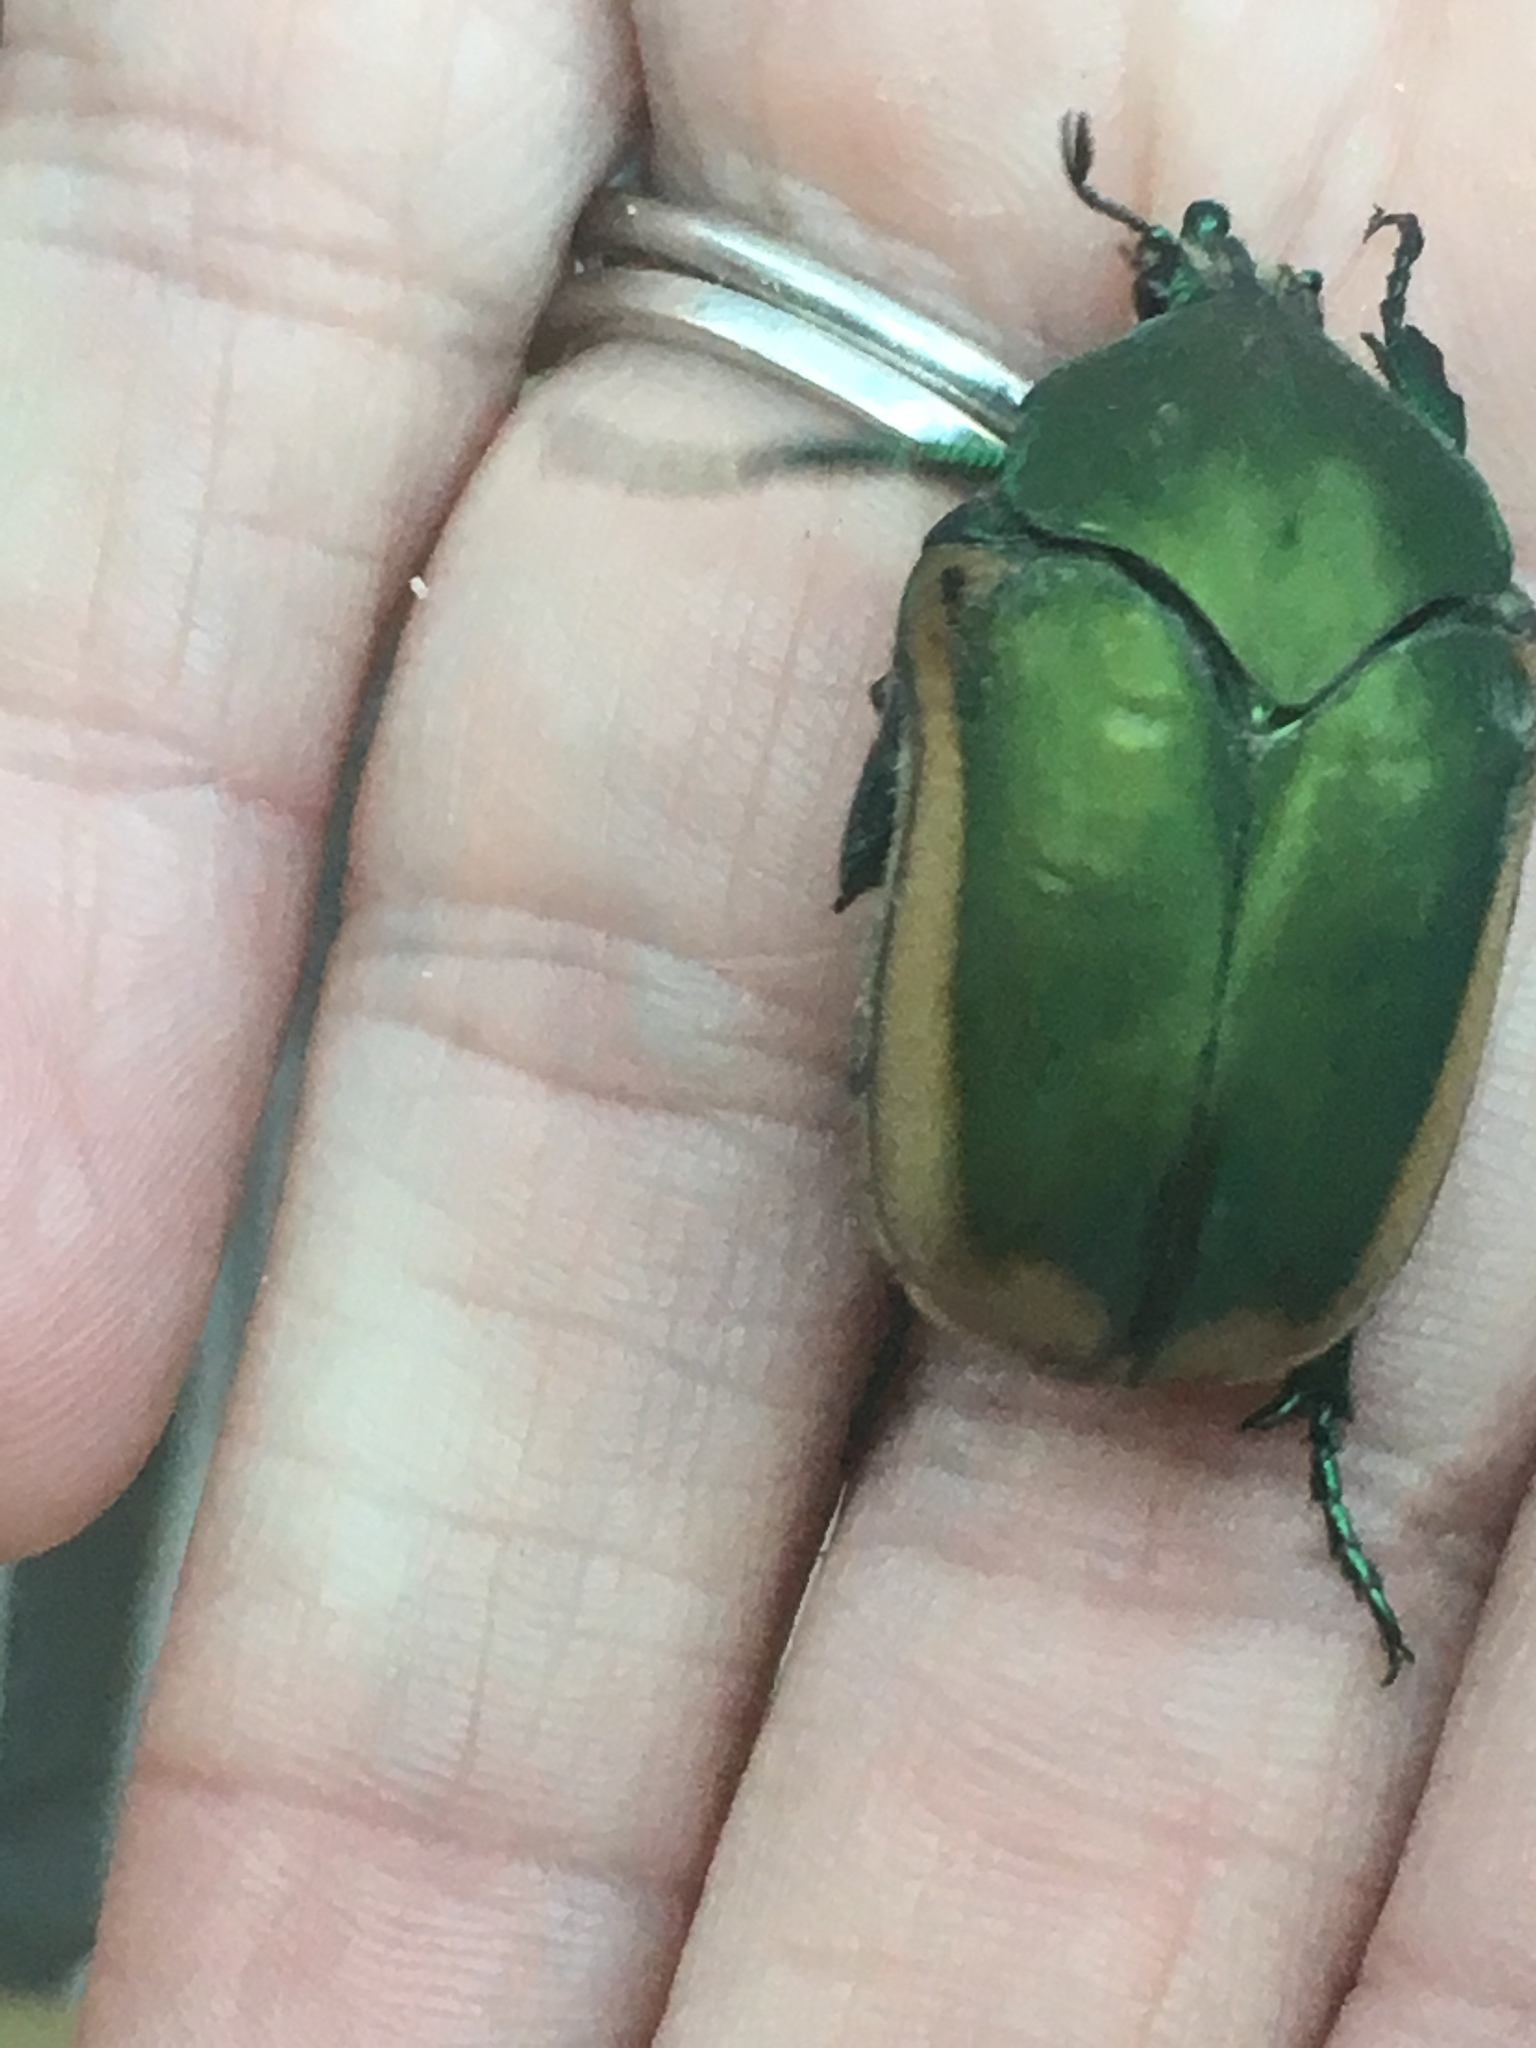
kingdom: Animalia
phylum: Arthropoda
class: Insecta
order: Coleoptera
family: Scarabaeidae
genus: Cotinis
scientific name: Cotinis mutabilis
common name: Figeater beetle
